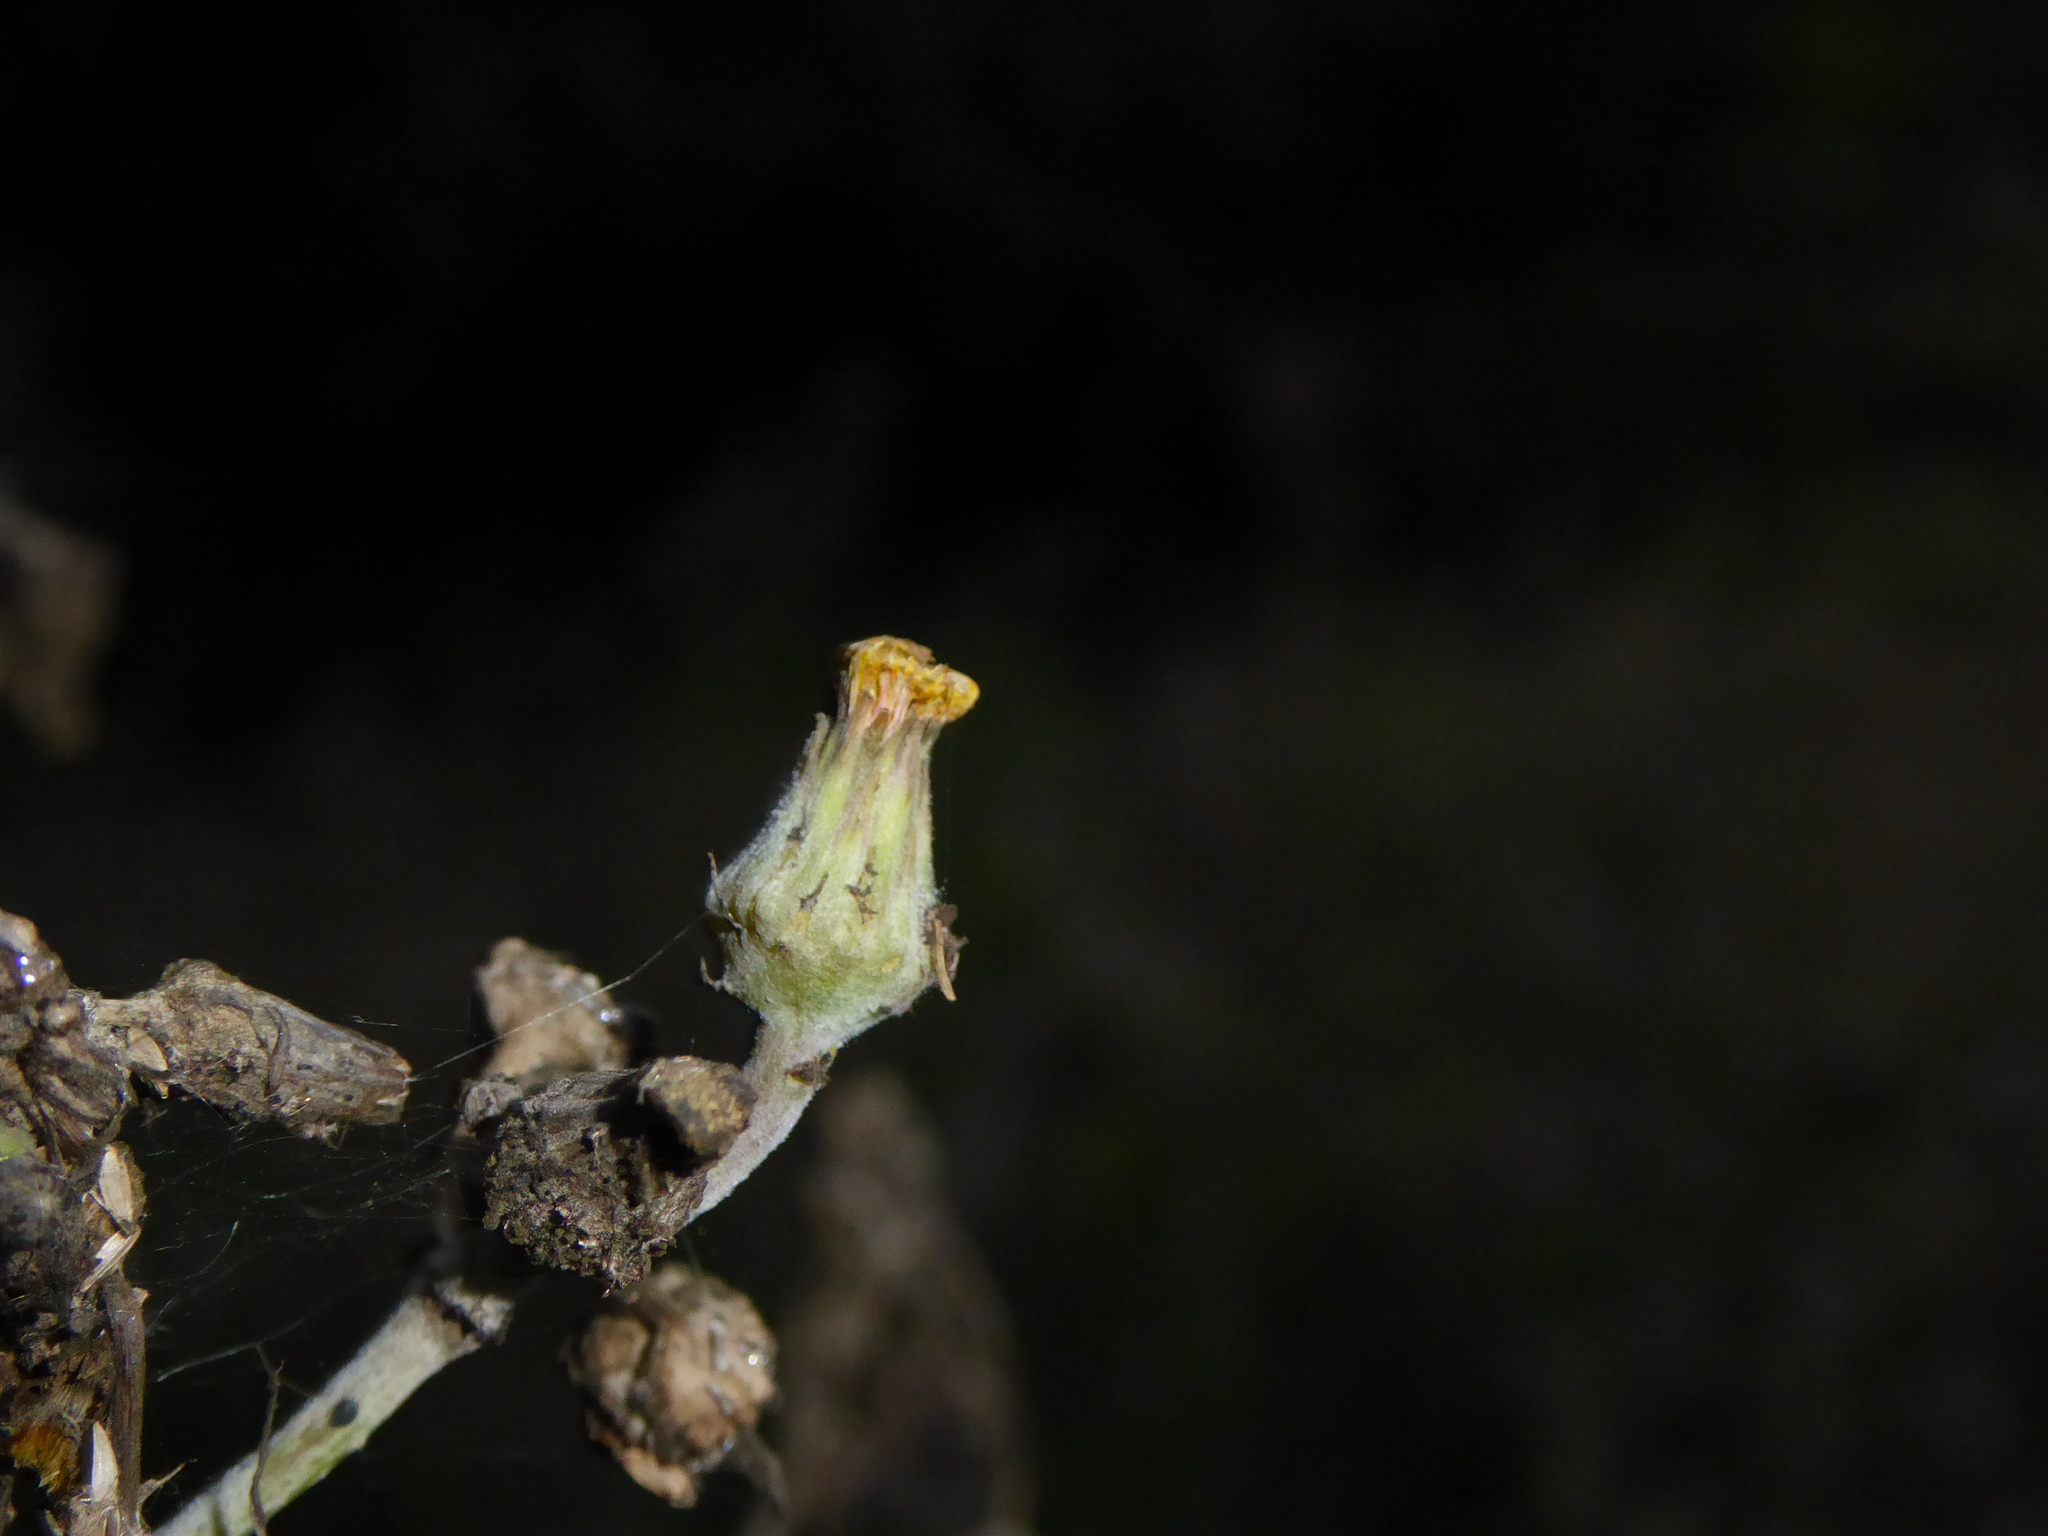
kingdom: Plantae
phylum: Tracheophyta
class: Magnoliopsida
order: Asterales
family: Asteraceae
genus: Sonchus
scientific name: Sonchus asper
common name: Prickly sow-thistle
